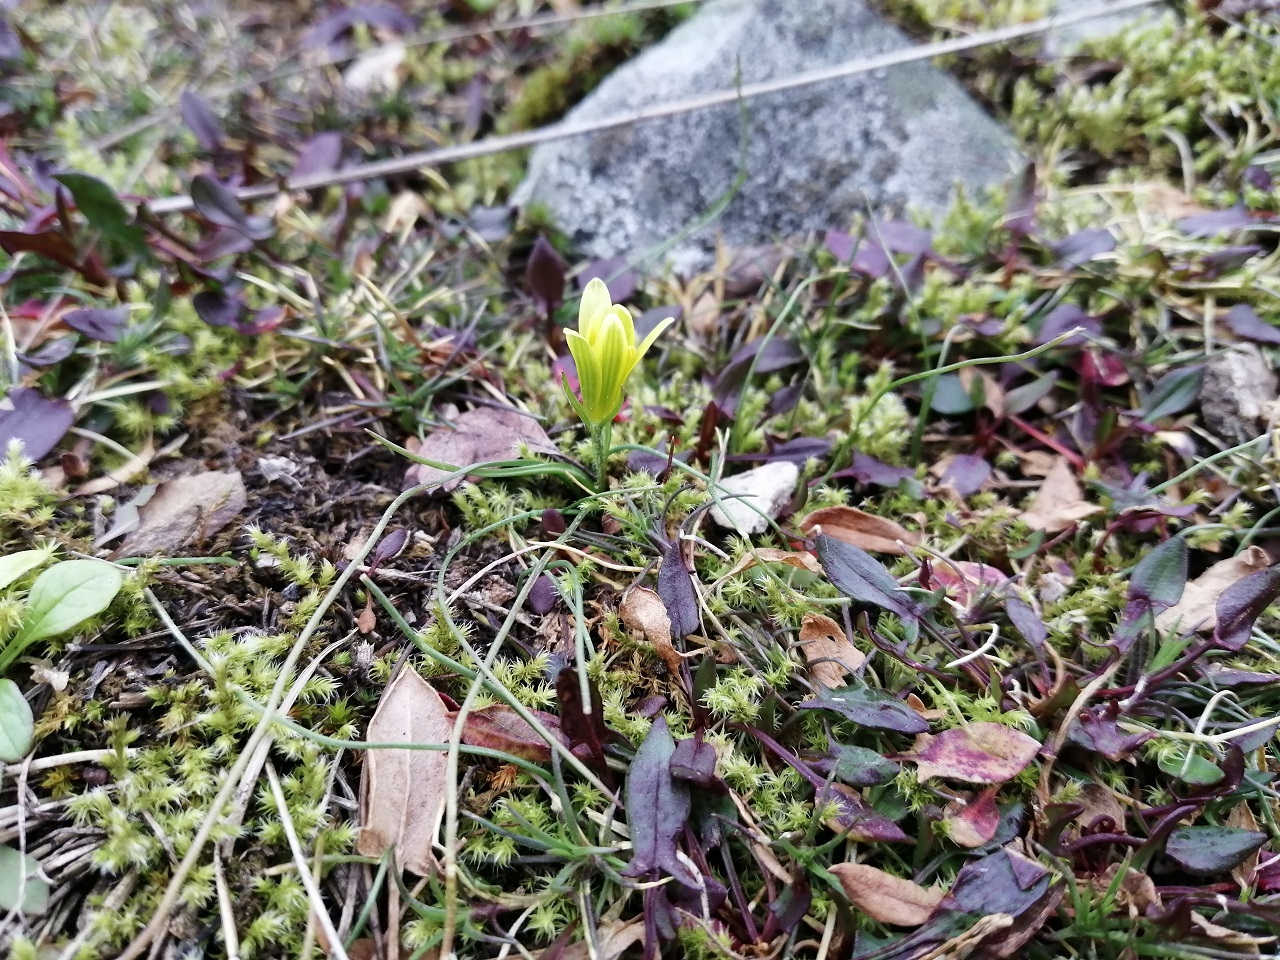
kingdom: Plantae
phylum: Tracheophyta
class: Liliopsida
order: Liliales
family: Liliaceae
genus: Gagea
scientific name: Gagea bohemica
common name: Early star-of-bethlehem
